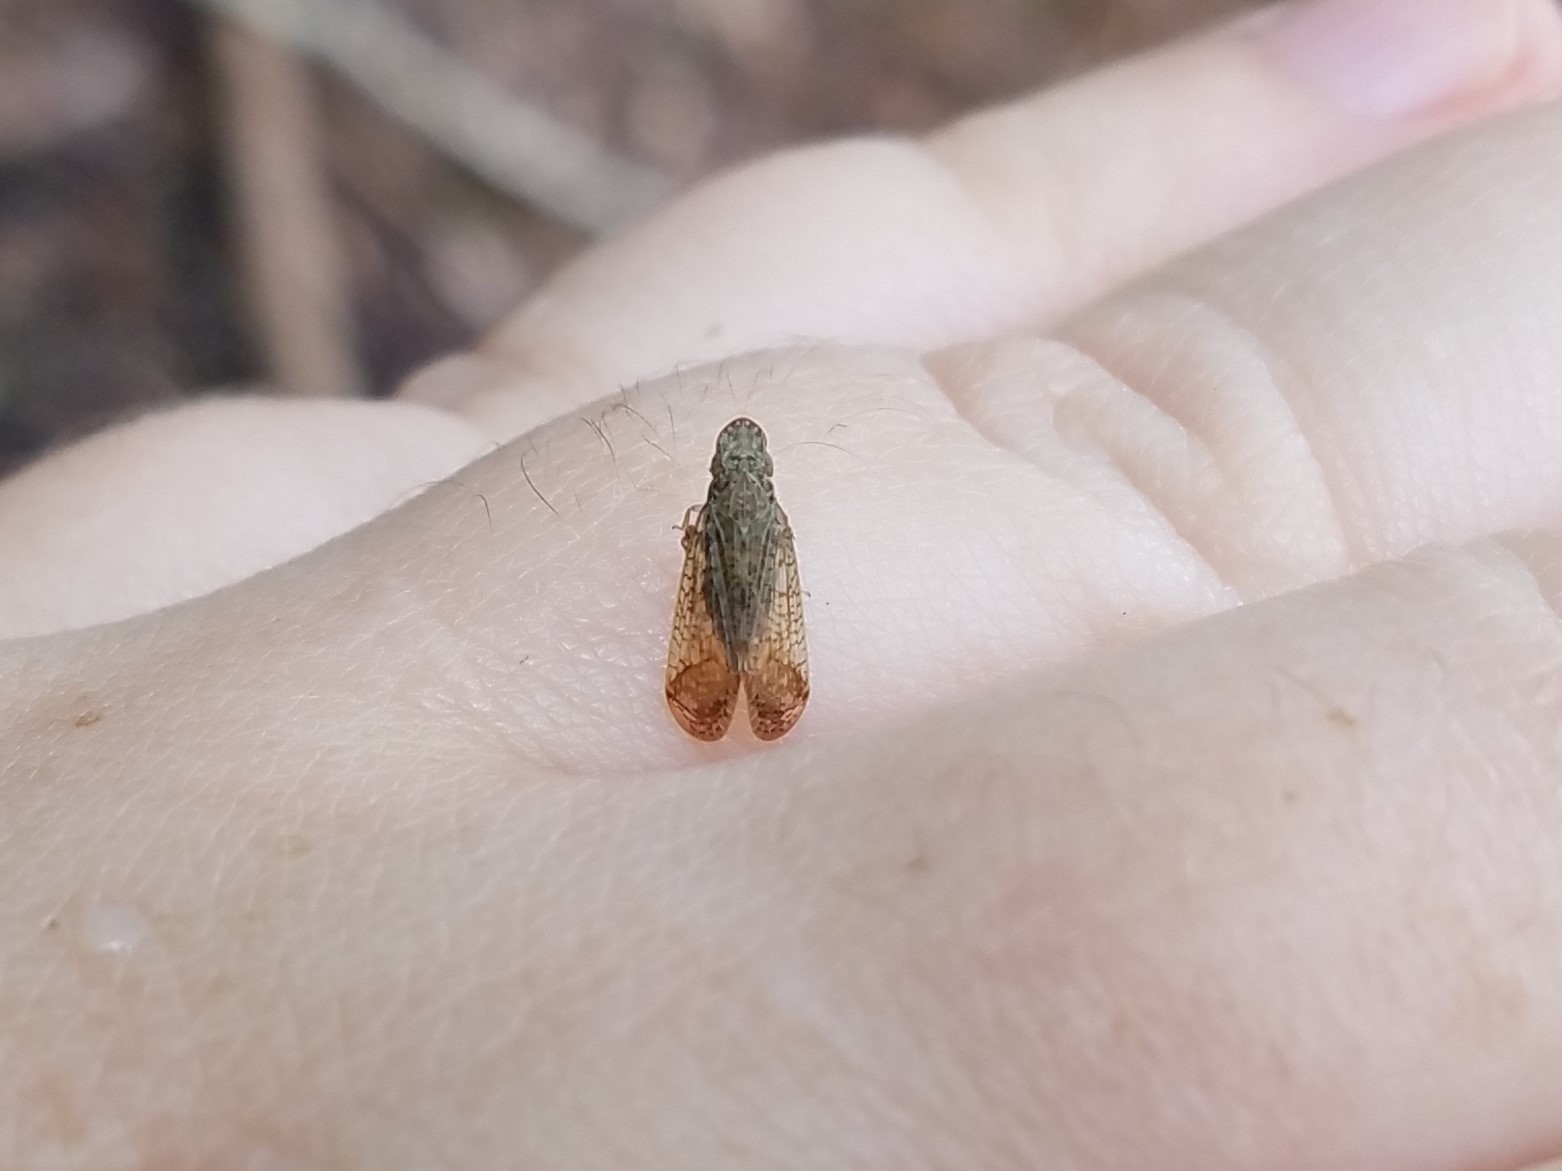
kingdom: Animalia
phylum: Arthropoda
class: Insecta
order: Hemiptera
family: Tropiduchidae
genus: Pelitropis
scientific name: Pelitropis rotulata
